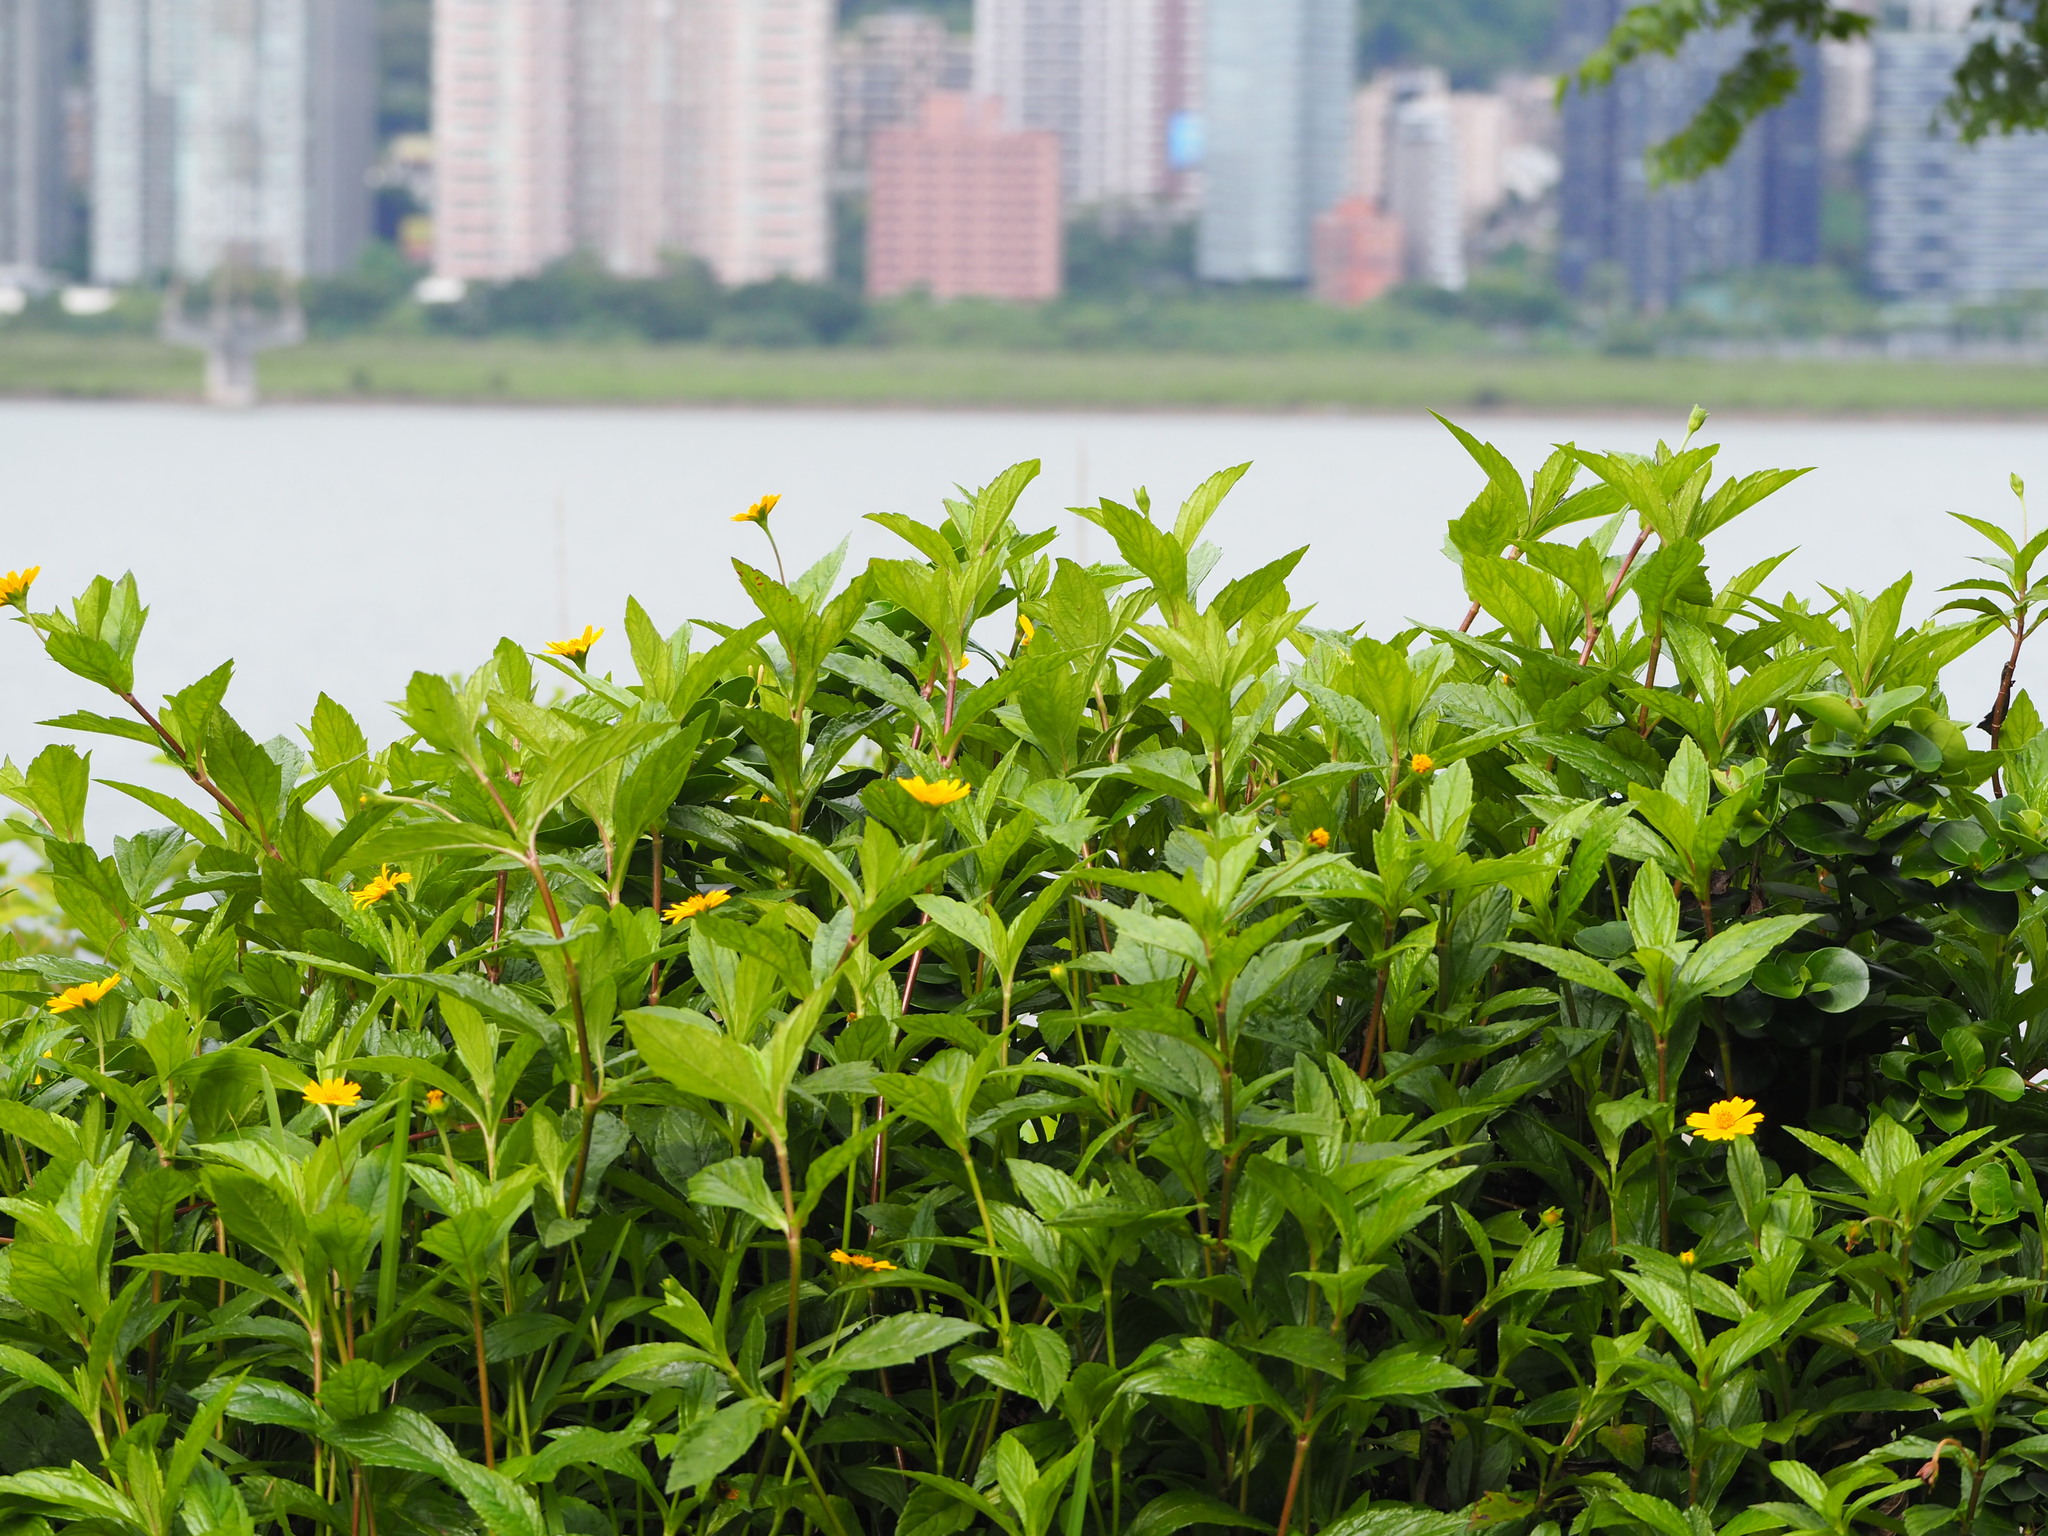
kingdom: Plantae
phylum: Tracheophyta
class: Magnoliopsida
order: Asterales
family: Asteraceae
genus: Sphagneticola
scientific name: Sphagneticola trilobata
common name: Bay biscayne creeping-oxeye
